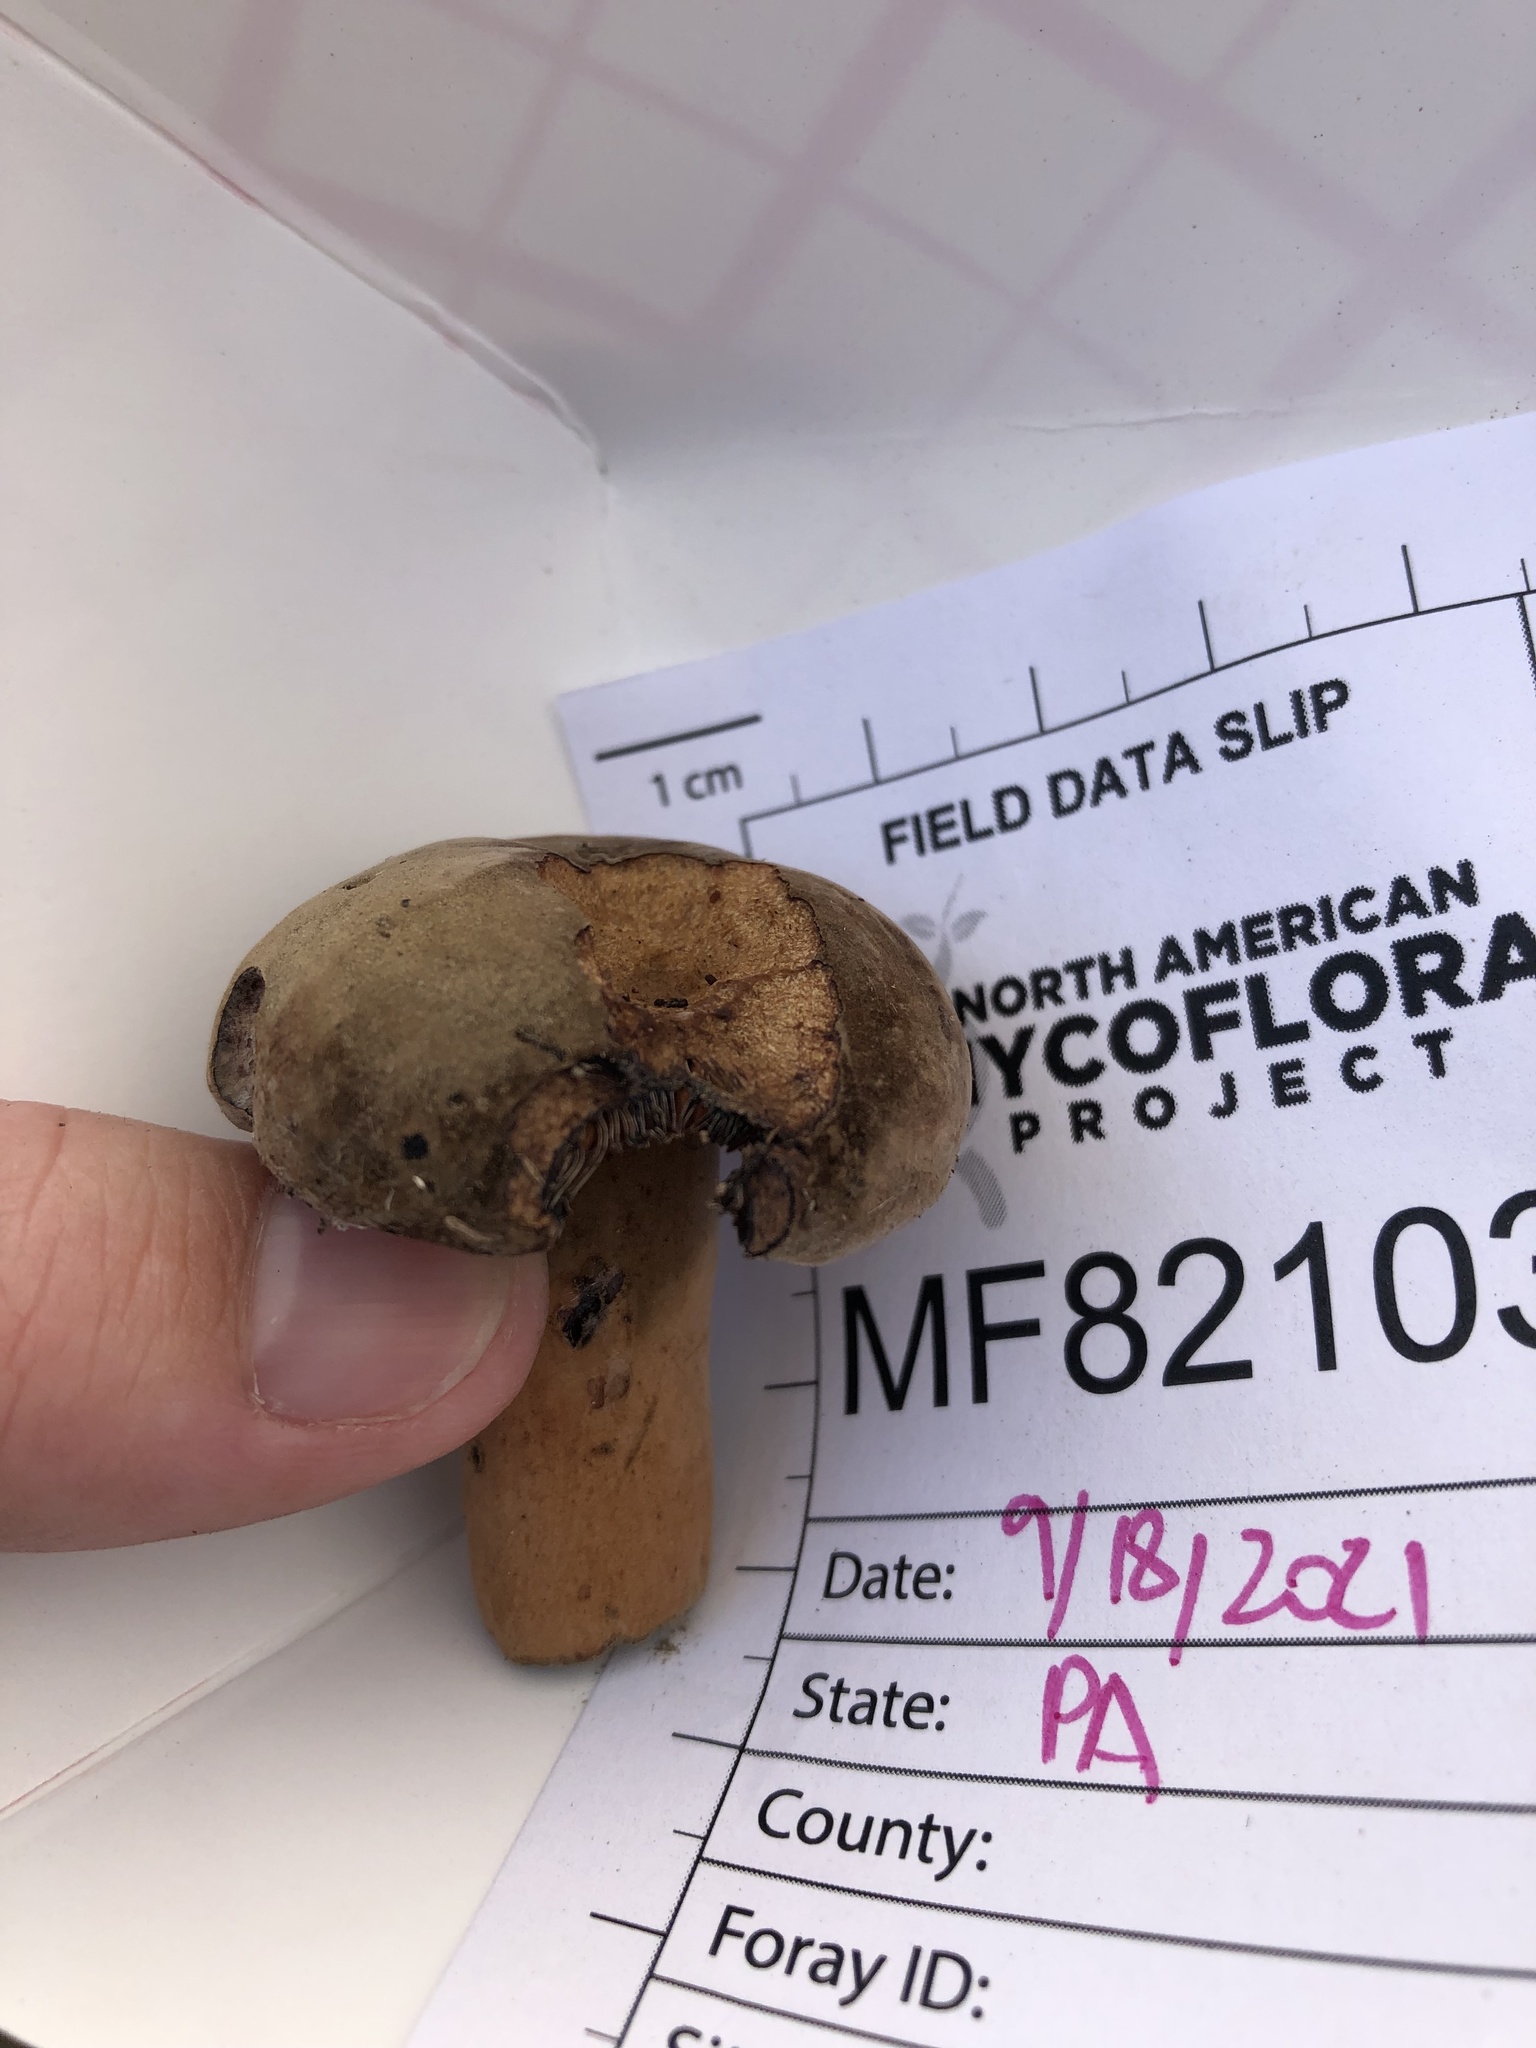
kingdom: Fungi
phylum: Basidiomycota
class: Agaricomycetes
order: Russulales
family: Russulaceae
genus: Lactarius
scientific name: Lactarius corrugis
